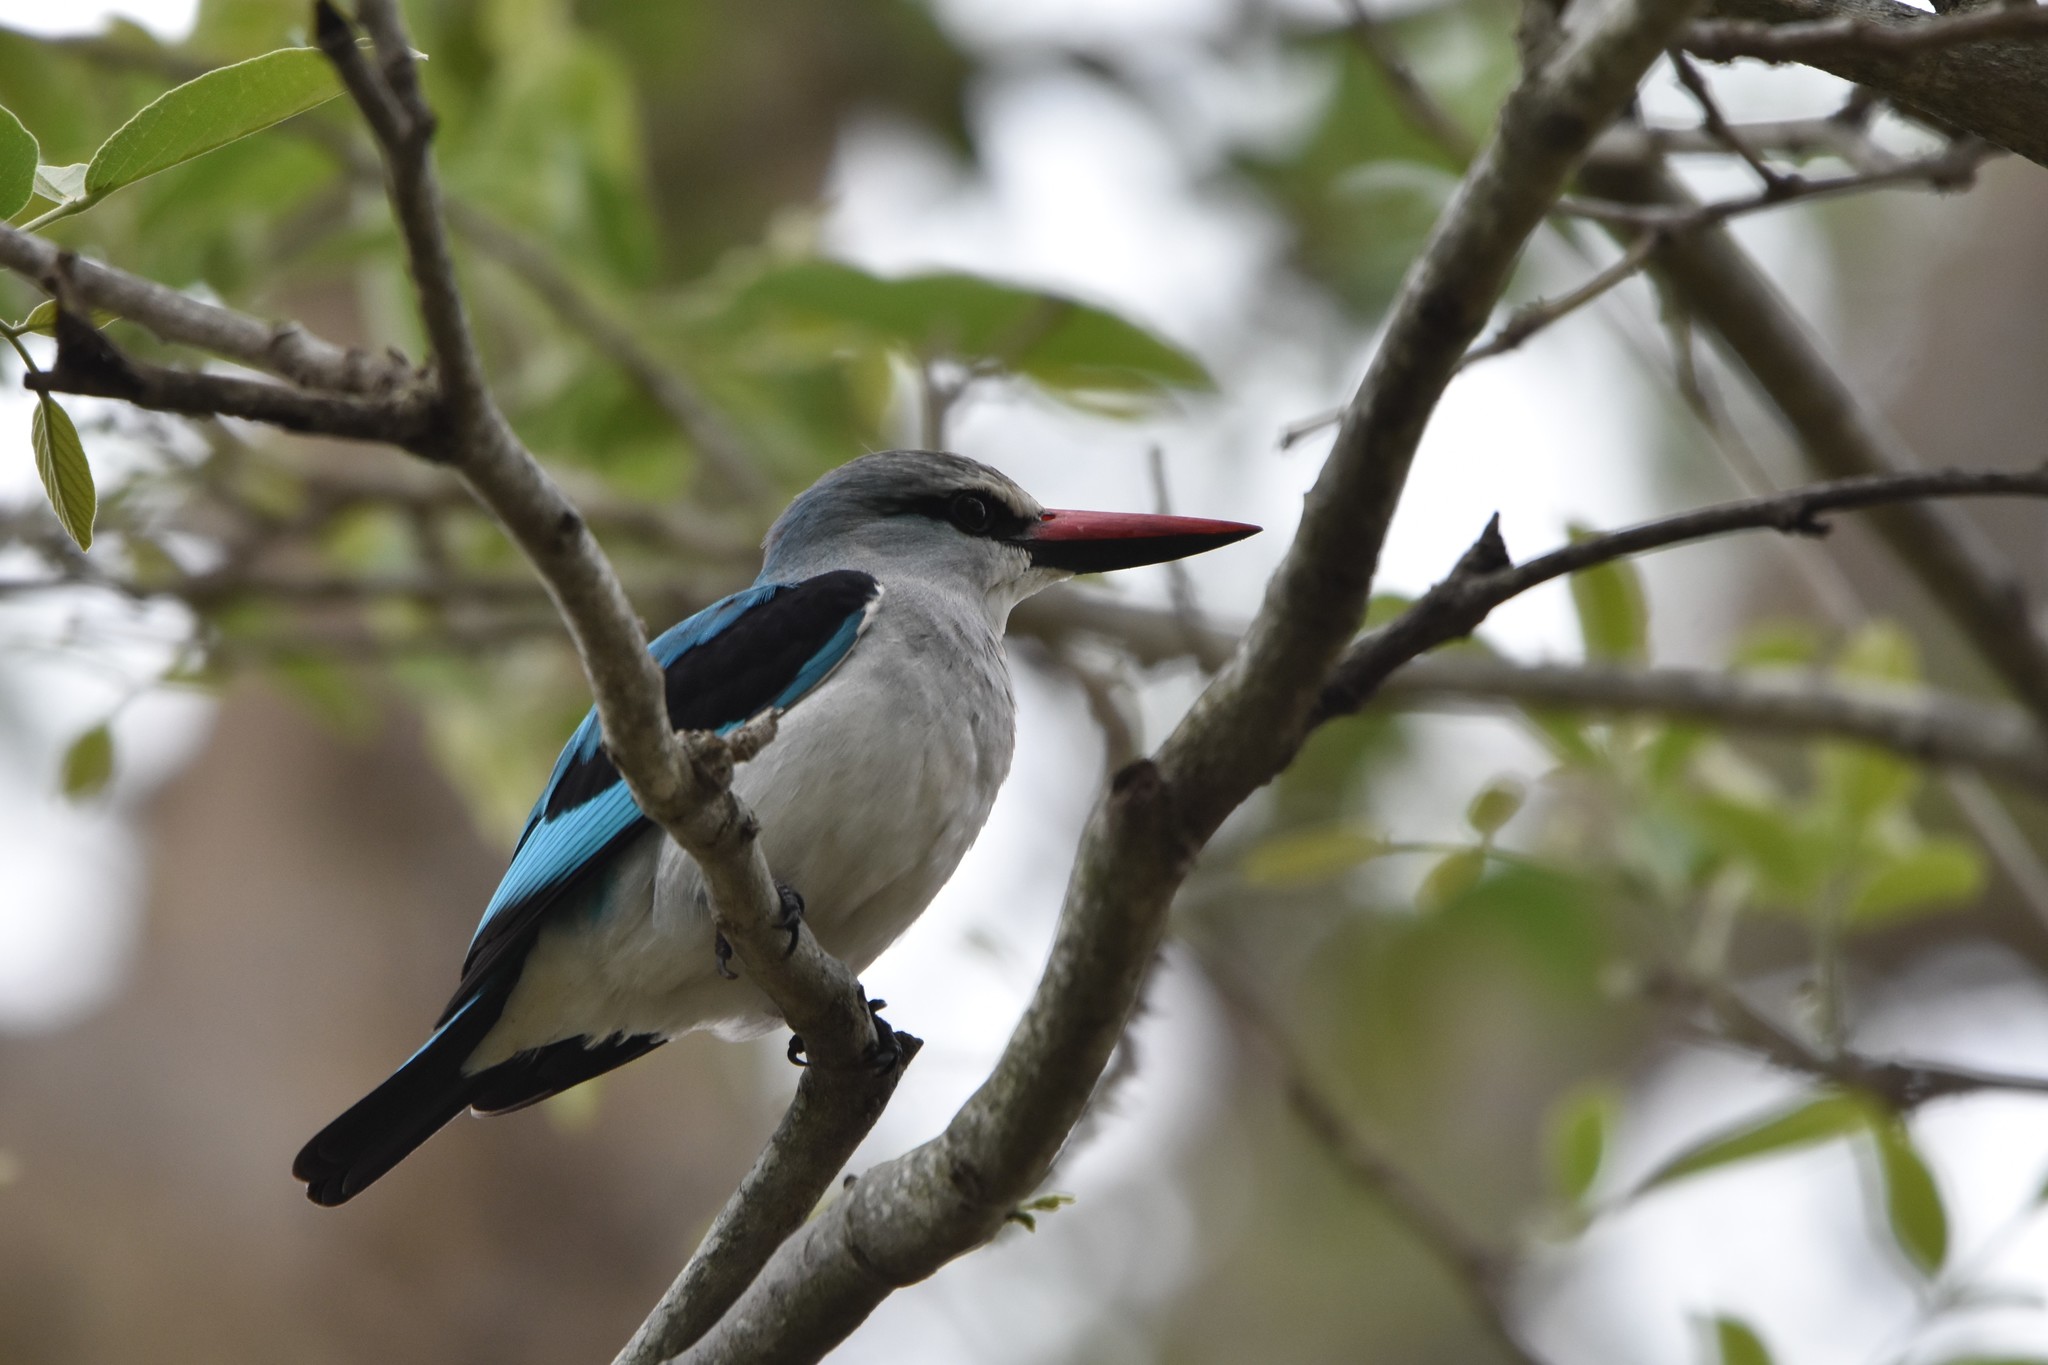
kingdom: Animalia
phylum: Chordata
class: Aves
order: Coraciiformes
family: Alcedinidae
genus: Halcyon
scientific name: Halcyon senegalensis
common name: Woodland kingfisher
